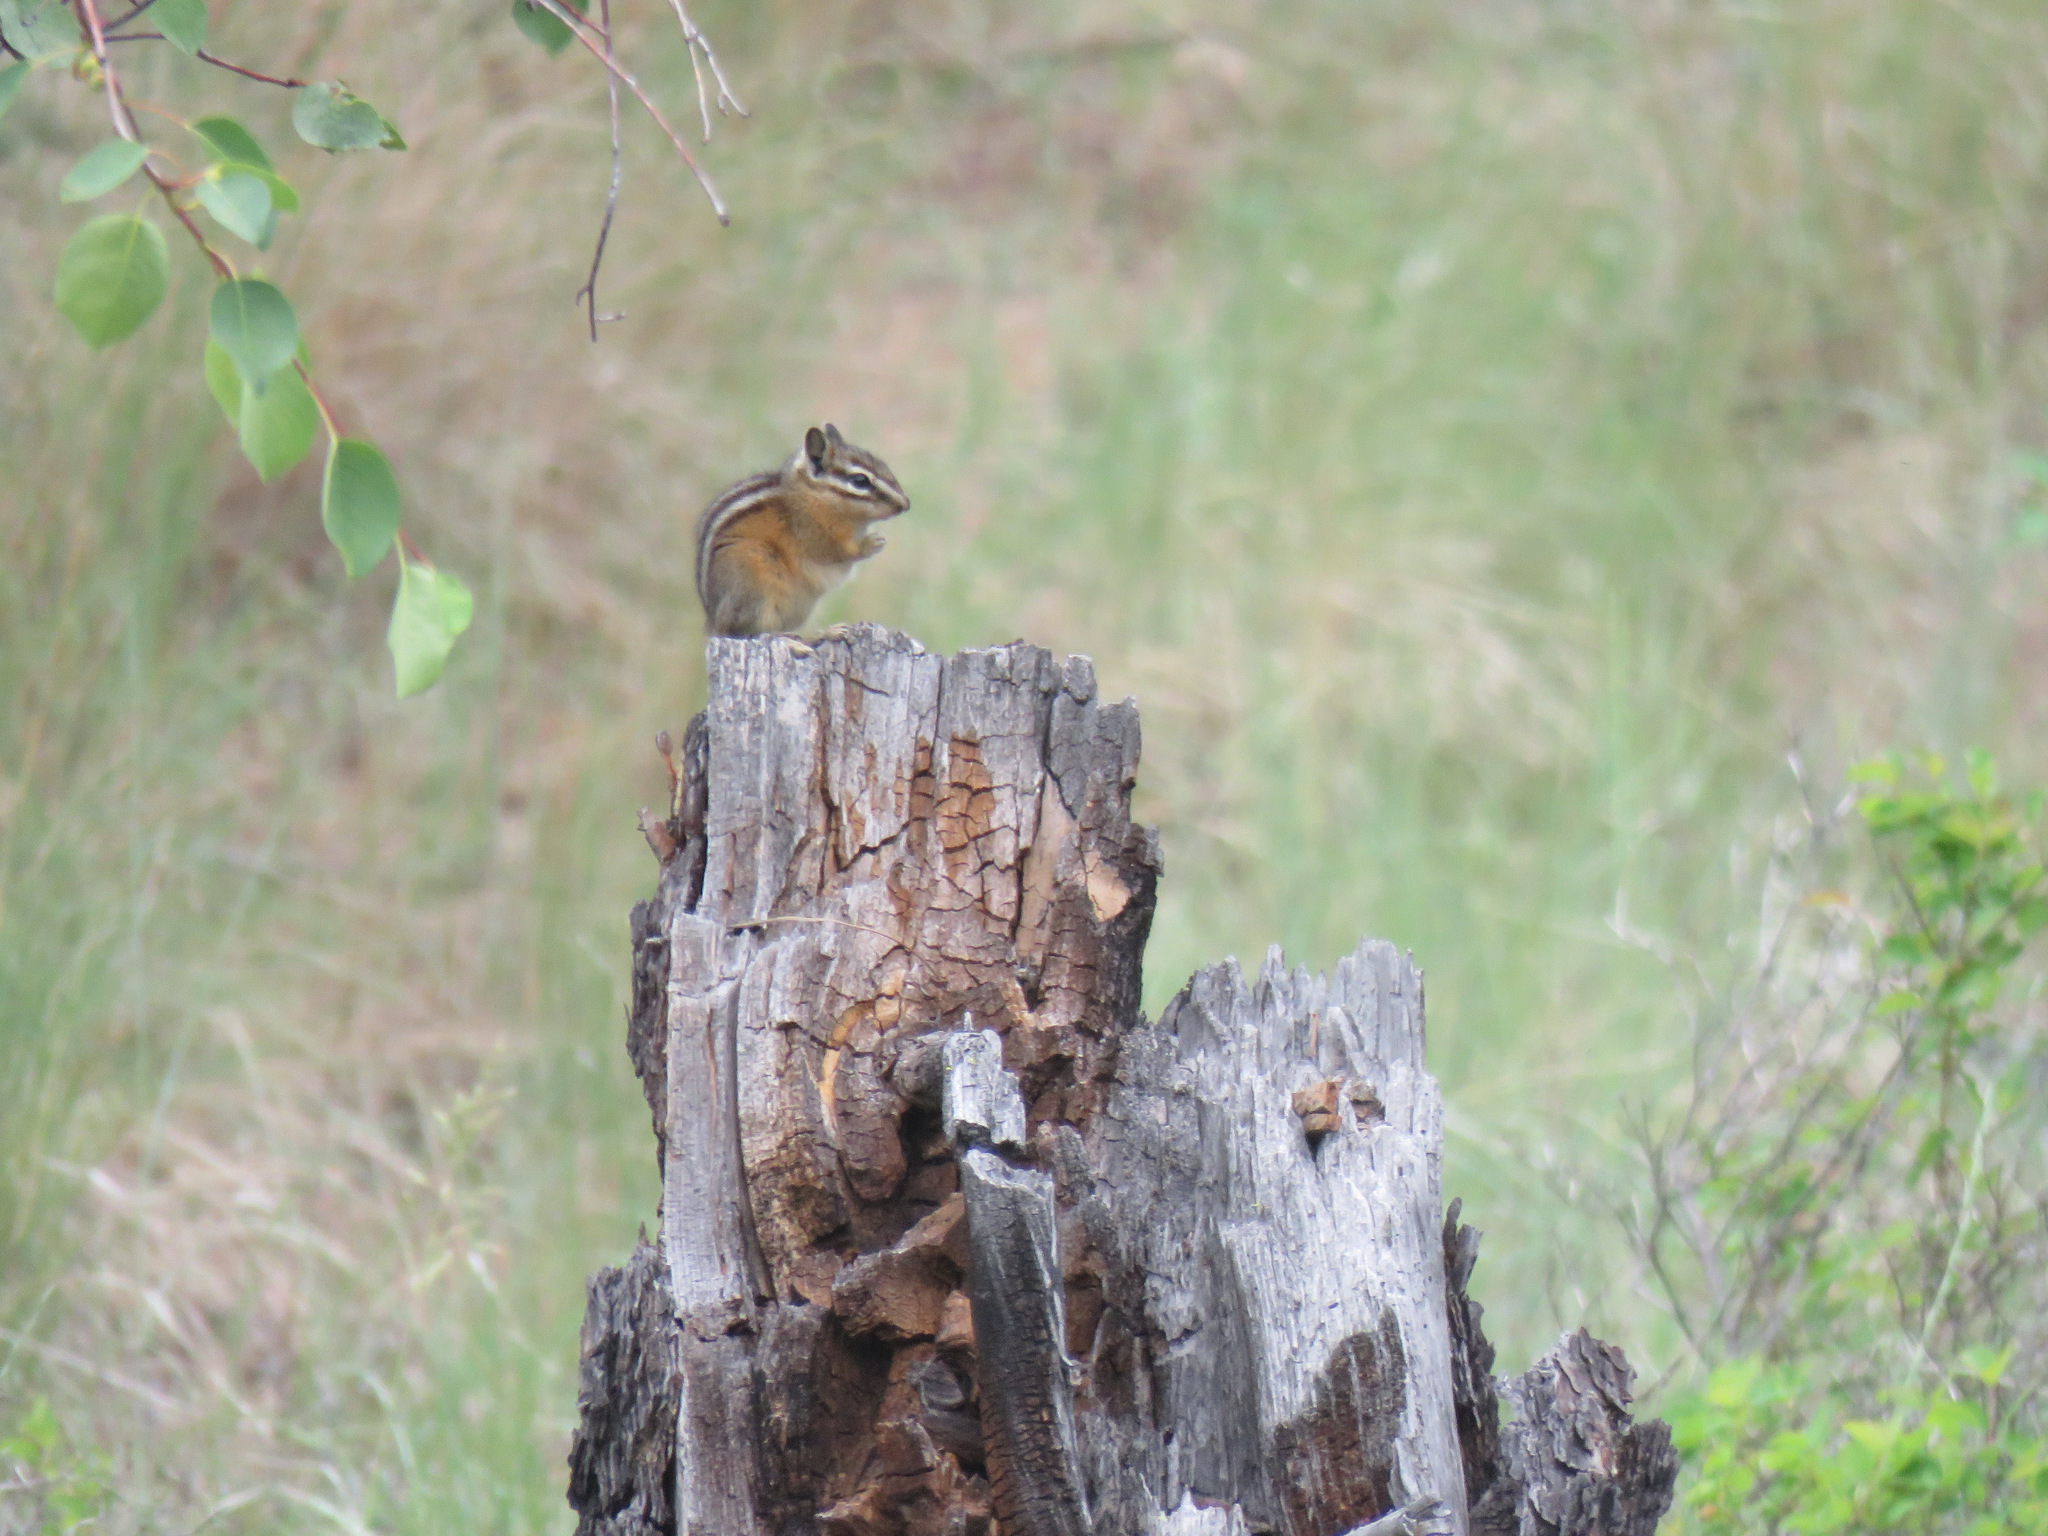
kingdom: Animalia
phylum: Chordata
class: Mammalia
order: Rodentia
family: Sciuridae
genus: Tamias
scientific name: Tamias amoenus
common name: Yellow-pine chipmunk
